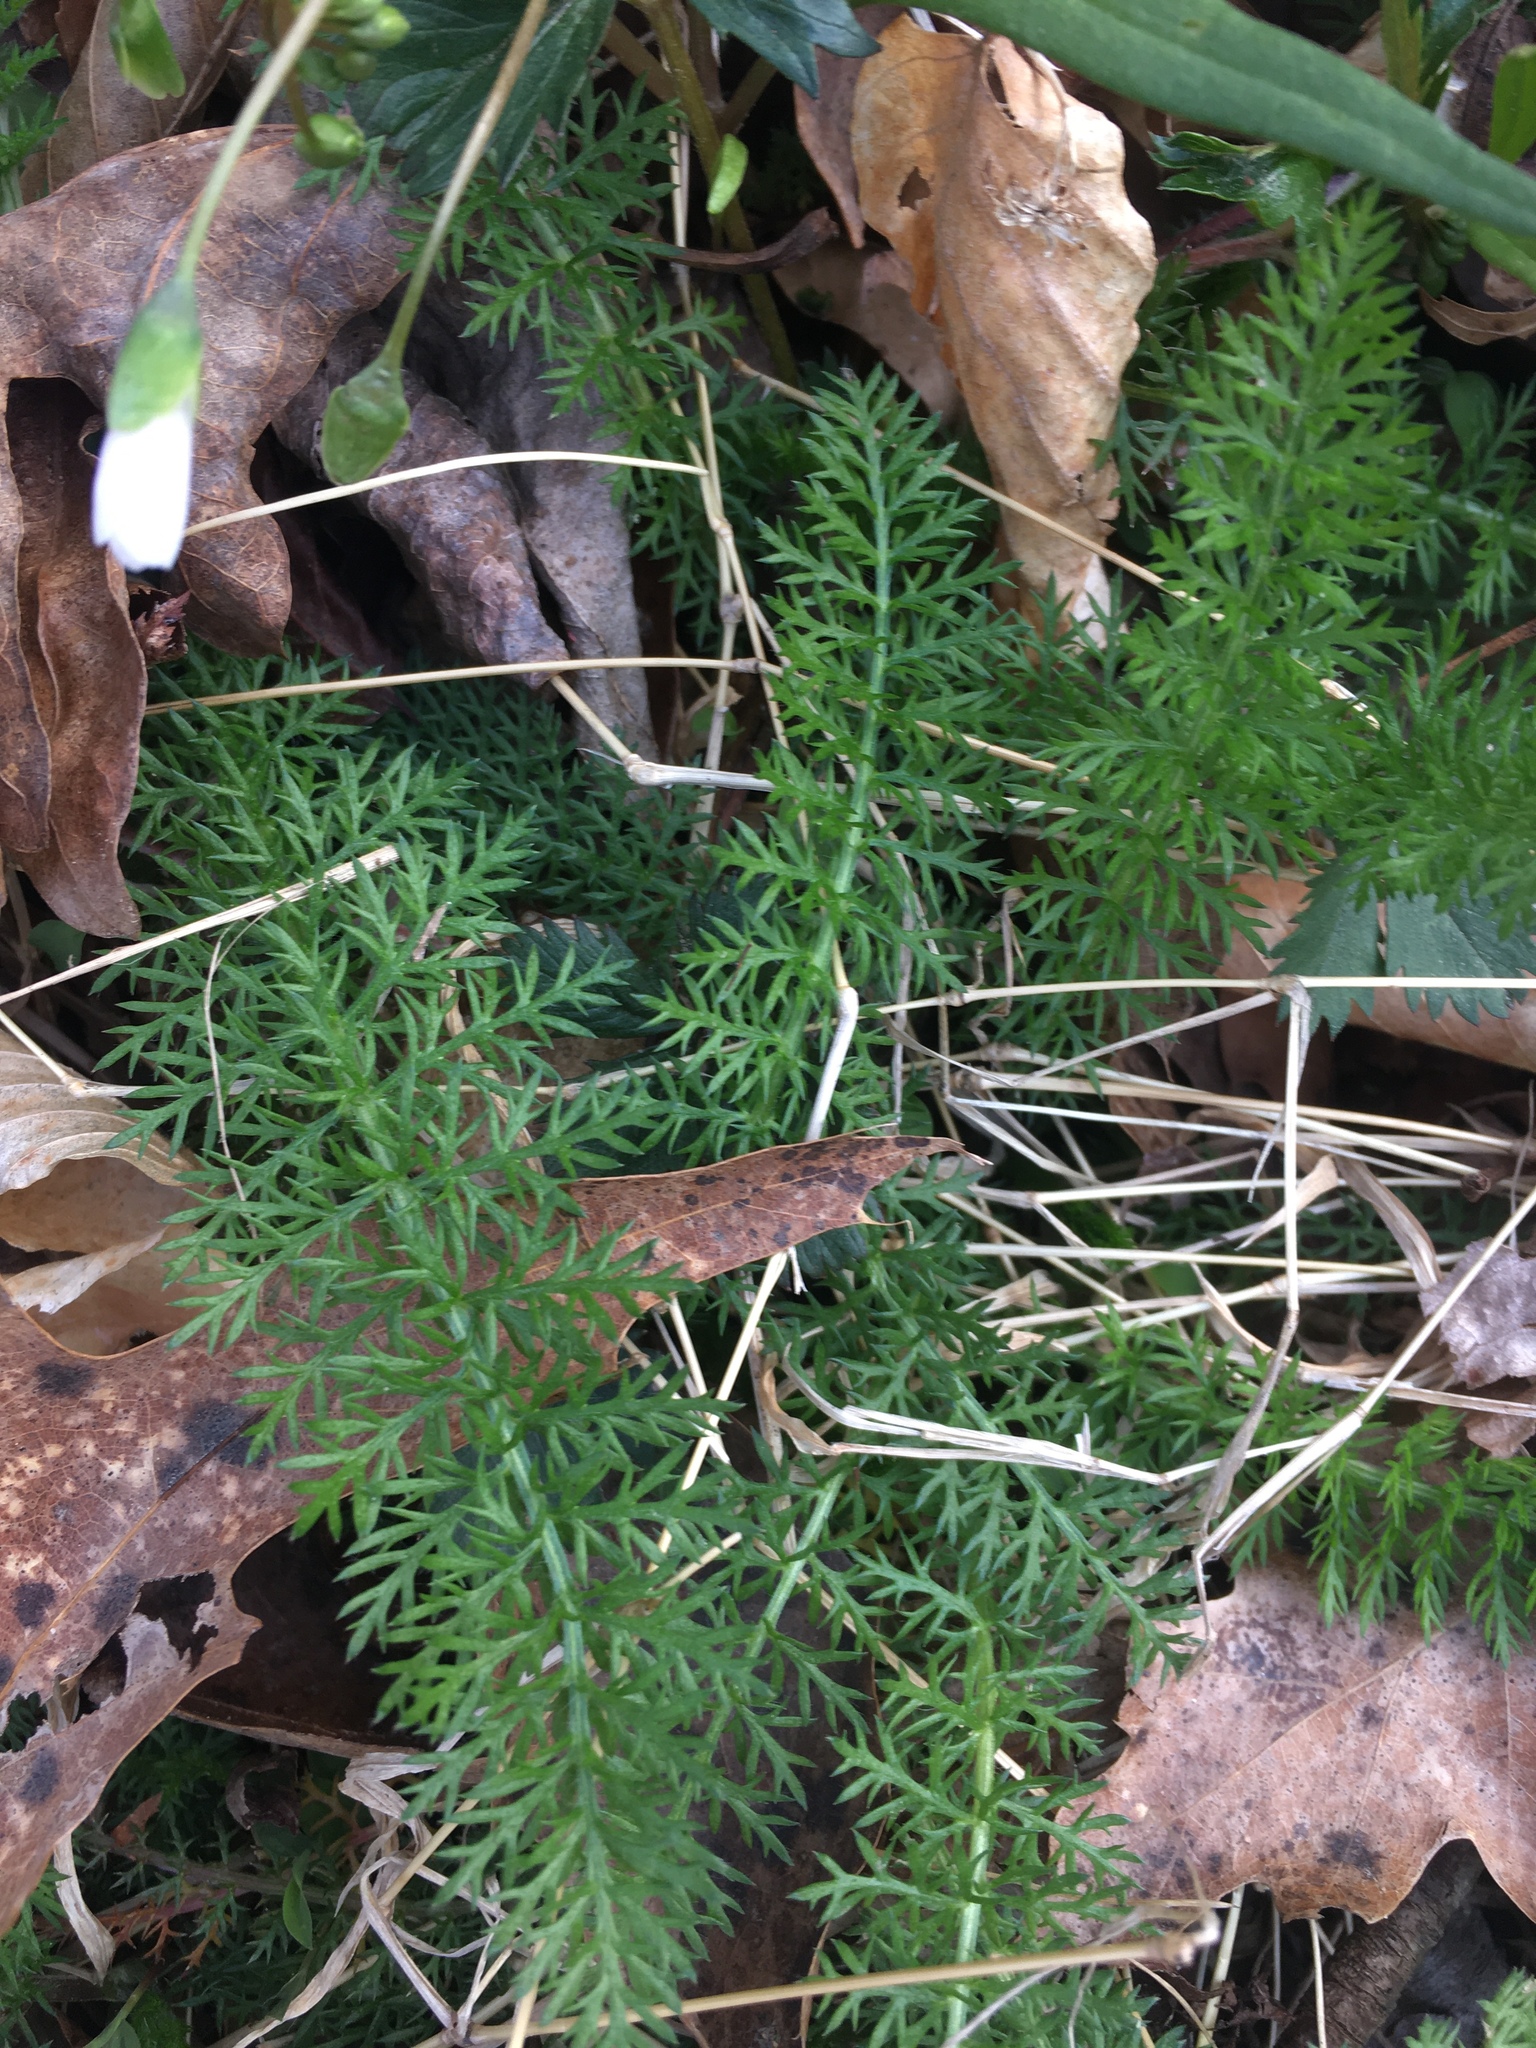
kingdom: Plantae
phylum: Tracheophyta
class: Magnoliopsida
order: Asterales
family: Asteraceae
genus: Achillea
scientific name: Achillea millefolium
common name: Yarrow
